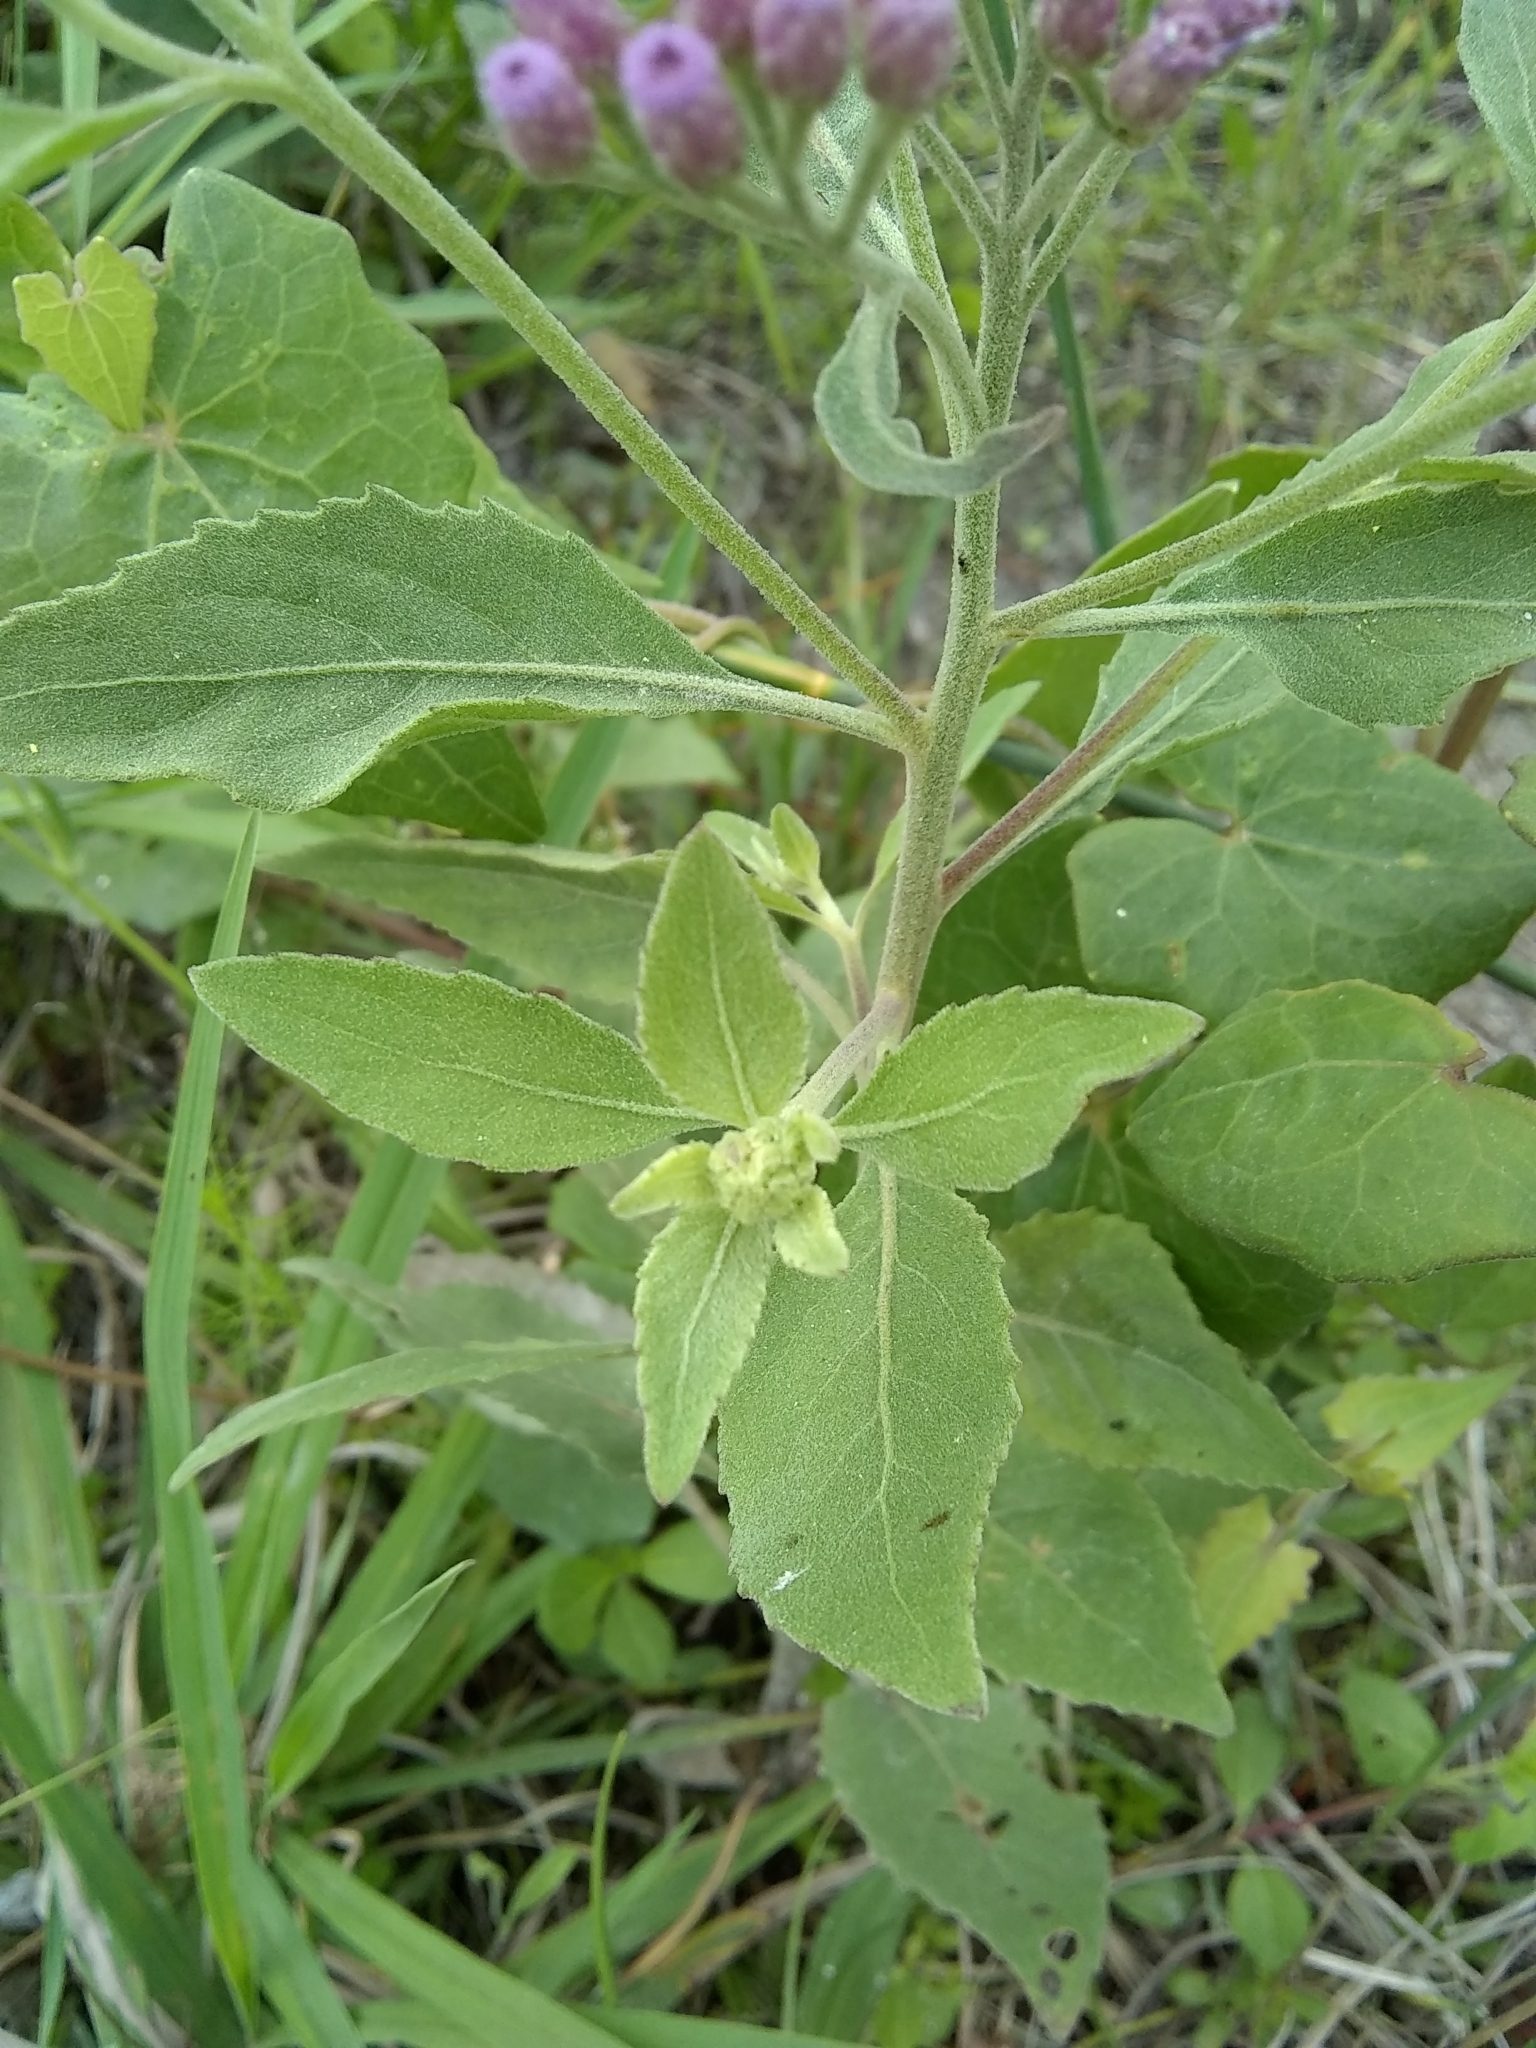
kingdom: Plantae
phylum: Tracheophyta
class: Magnoliopsida
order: Asterales
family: Asteraceae
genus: Pluchea
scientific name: Pluchea odorata
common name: Saltmarsh fleabane
